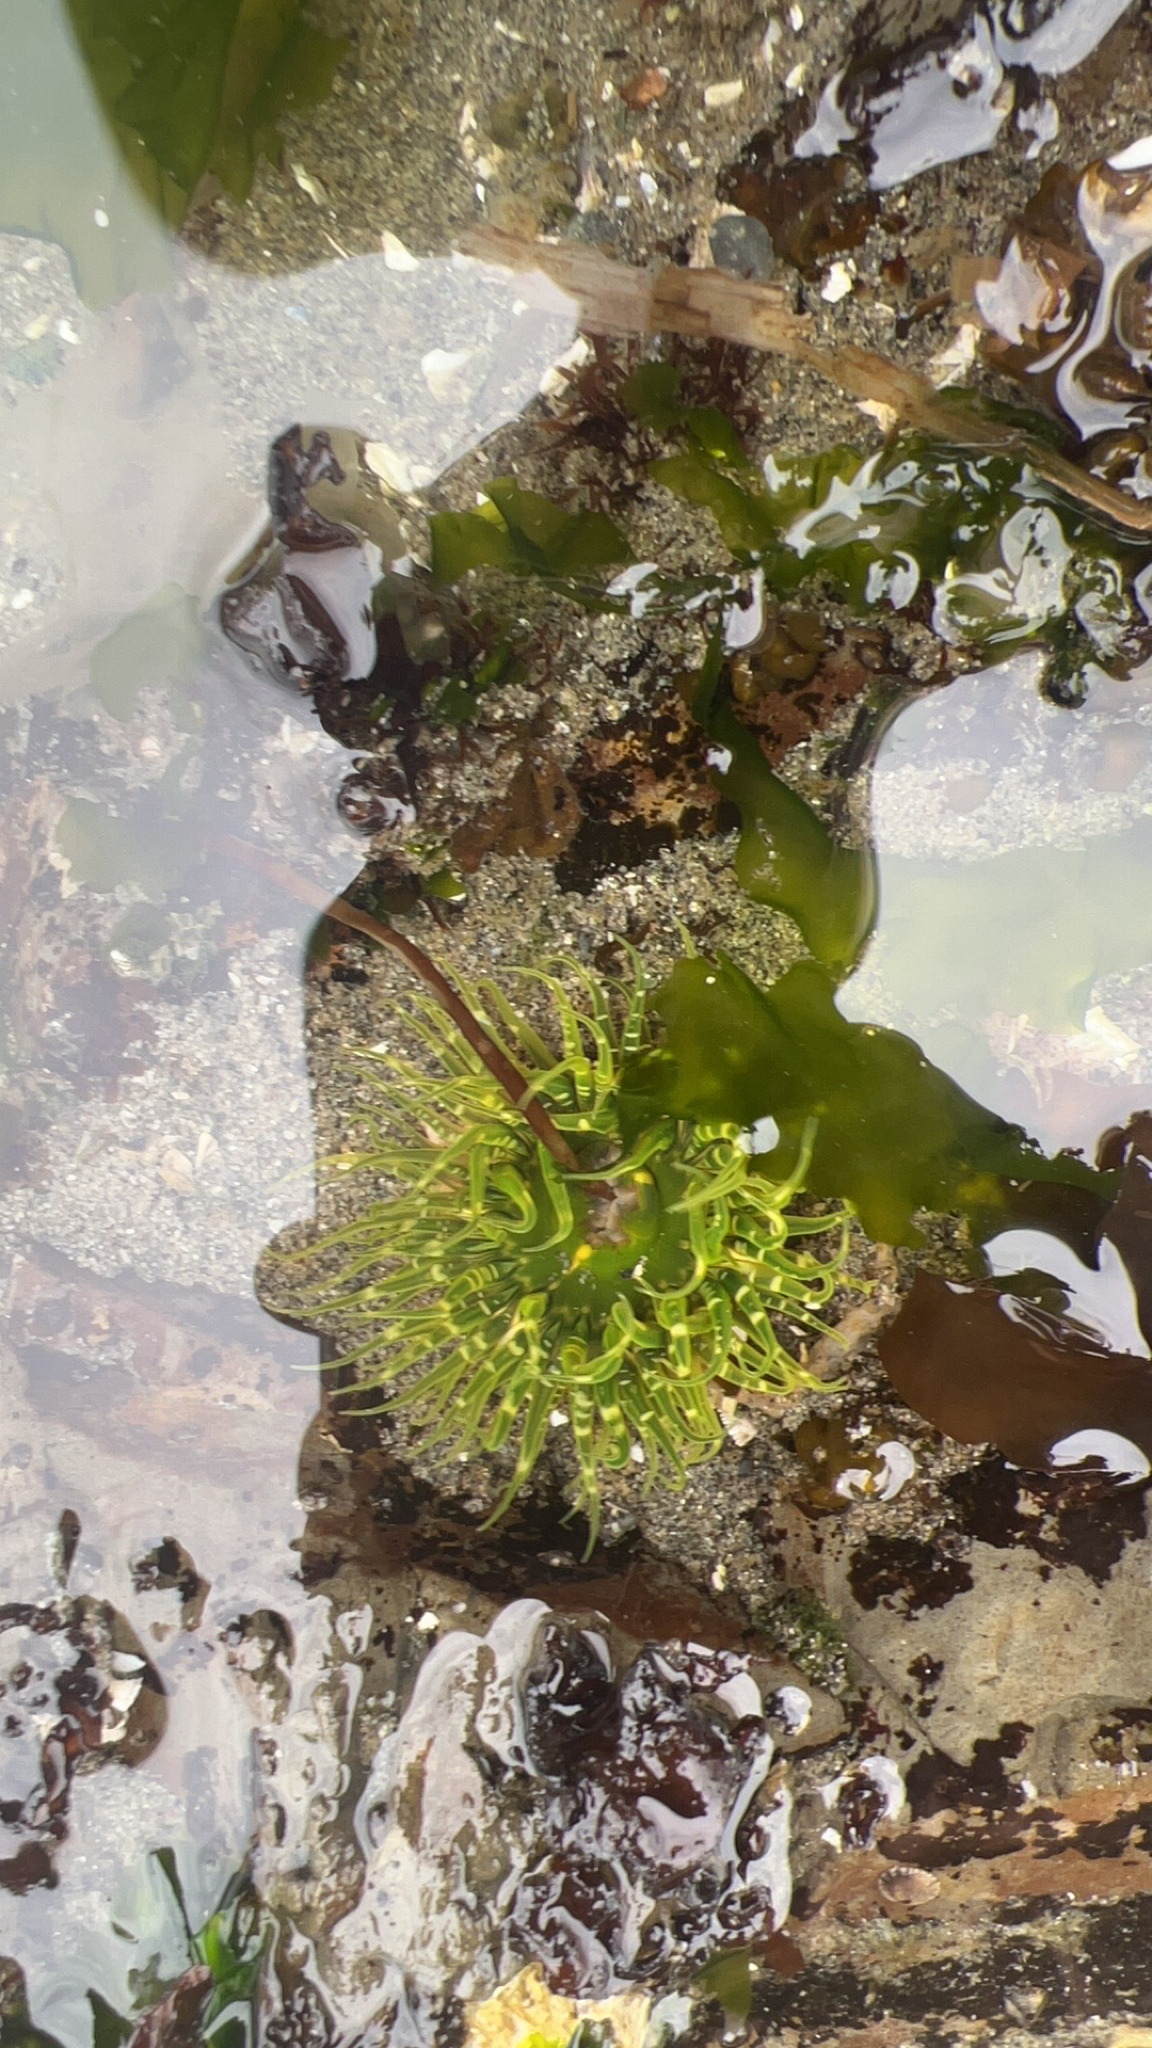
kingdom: Animalia
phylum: Cnidaria
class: Anthozoa
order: Actiniaria
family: Actiniidae
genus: Anthopleura
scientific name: Anthopleura artemisia
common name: Buried sea anemone
